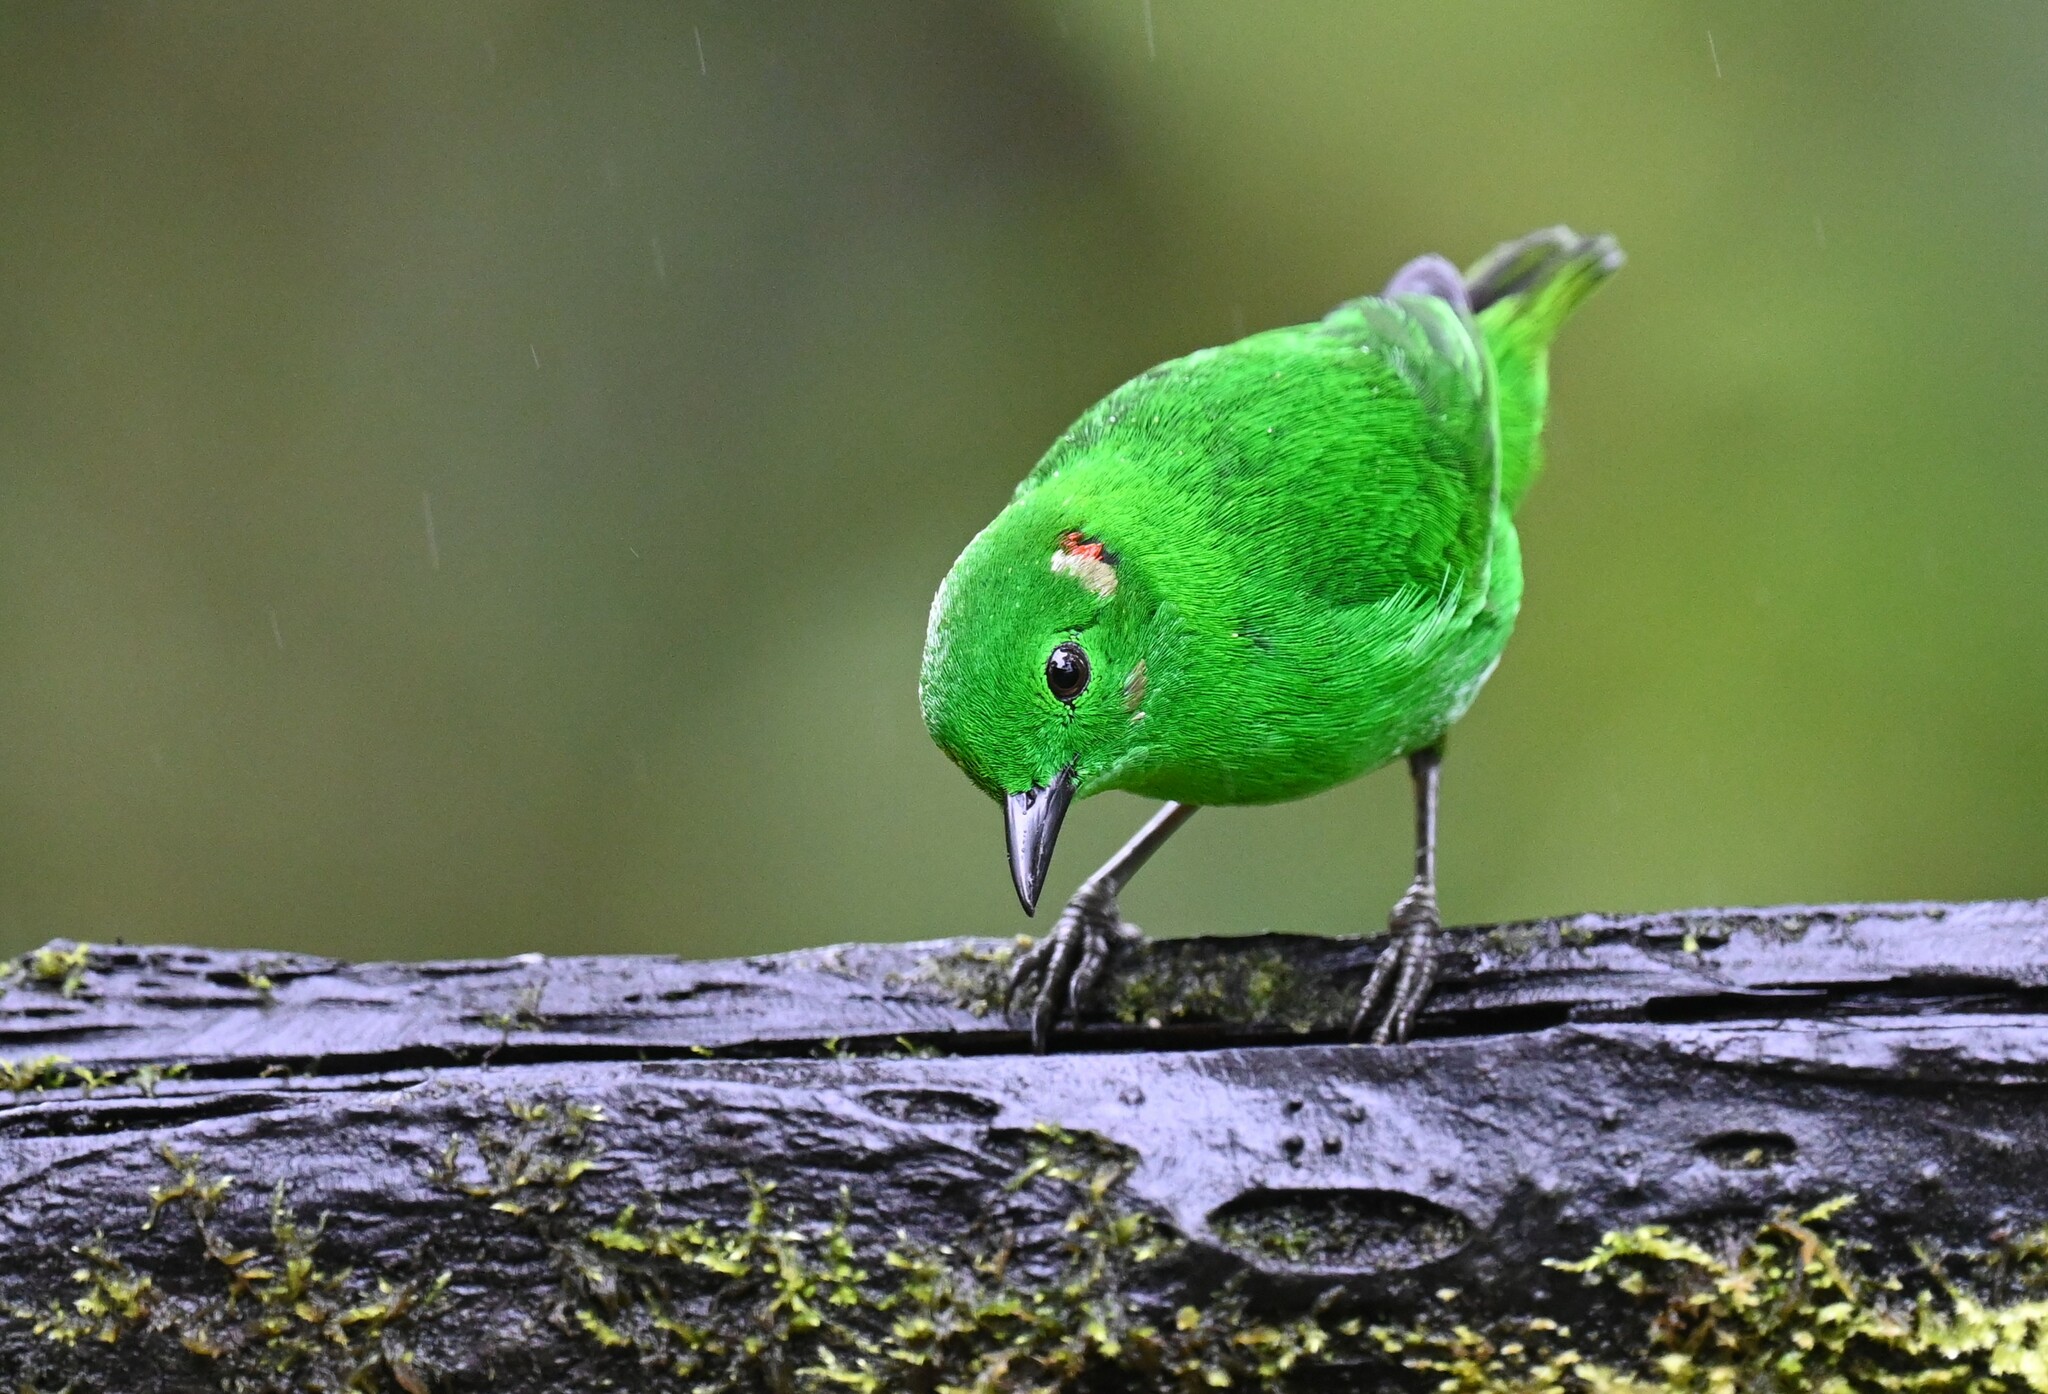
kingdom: Animalia
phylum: Chordata
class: Aves
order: Passeriformes
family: Thraupidae
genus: Chlorochrysa
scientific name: Chlorochrysa phoenicotis
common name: Glistening-green tanager
